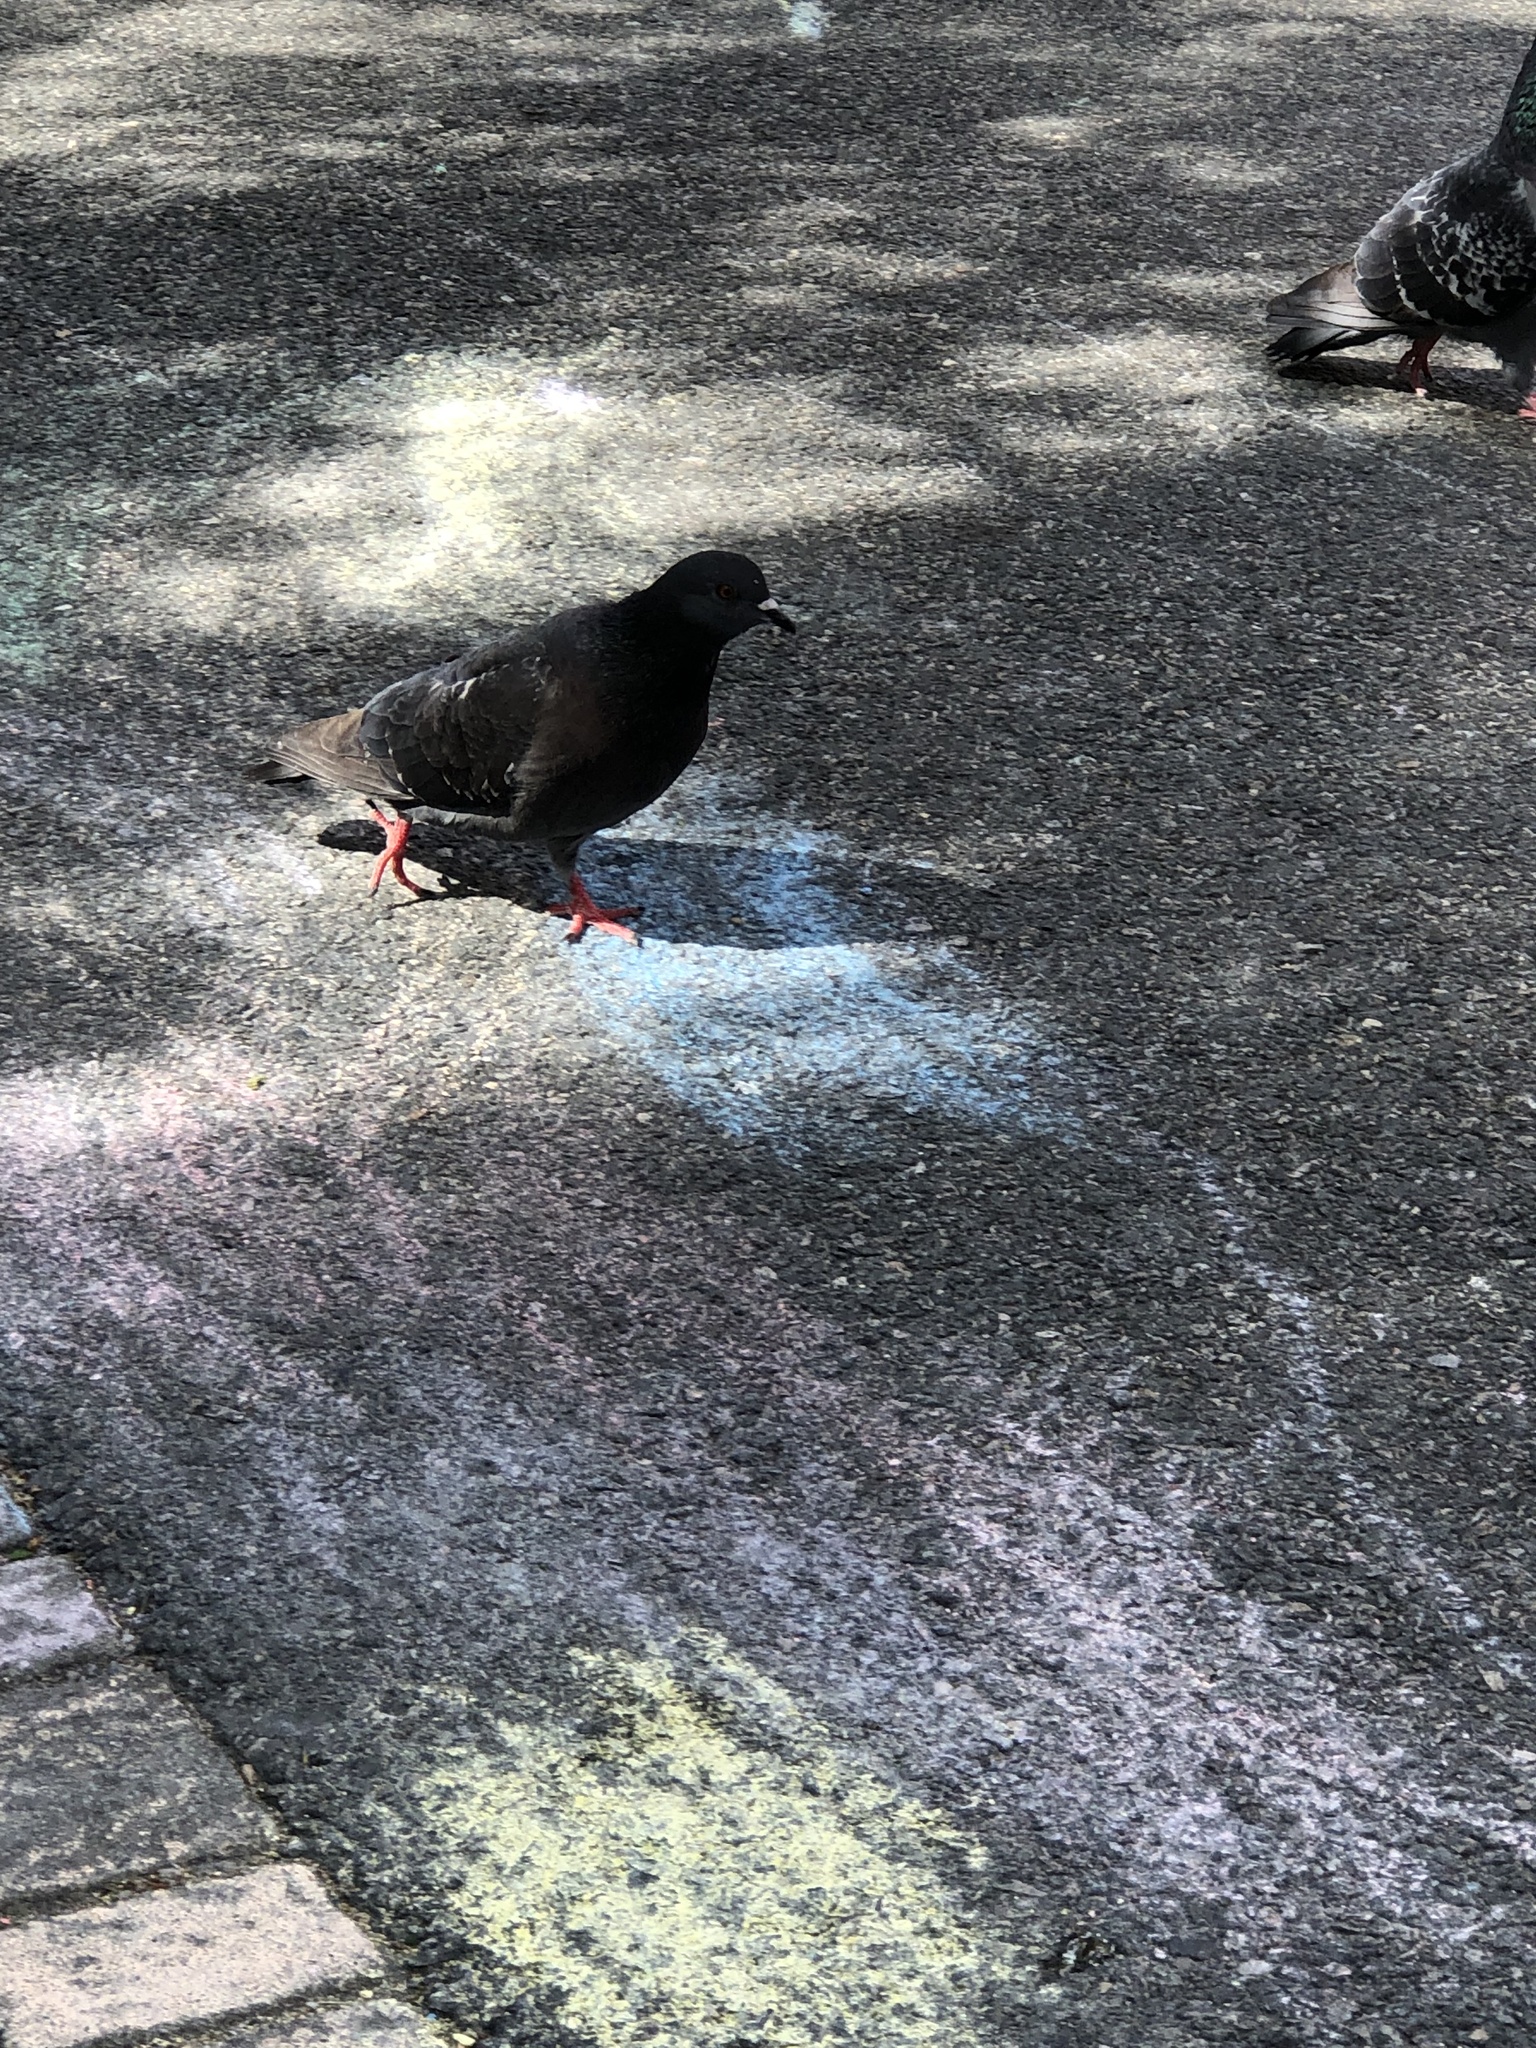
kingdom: Animalia
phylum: Chordata
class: Aves
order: Columbiformes
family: Columbidae
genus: Columba
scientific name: Columba livia
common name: Rock pigeon
